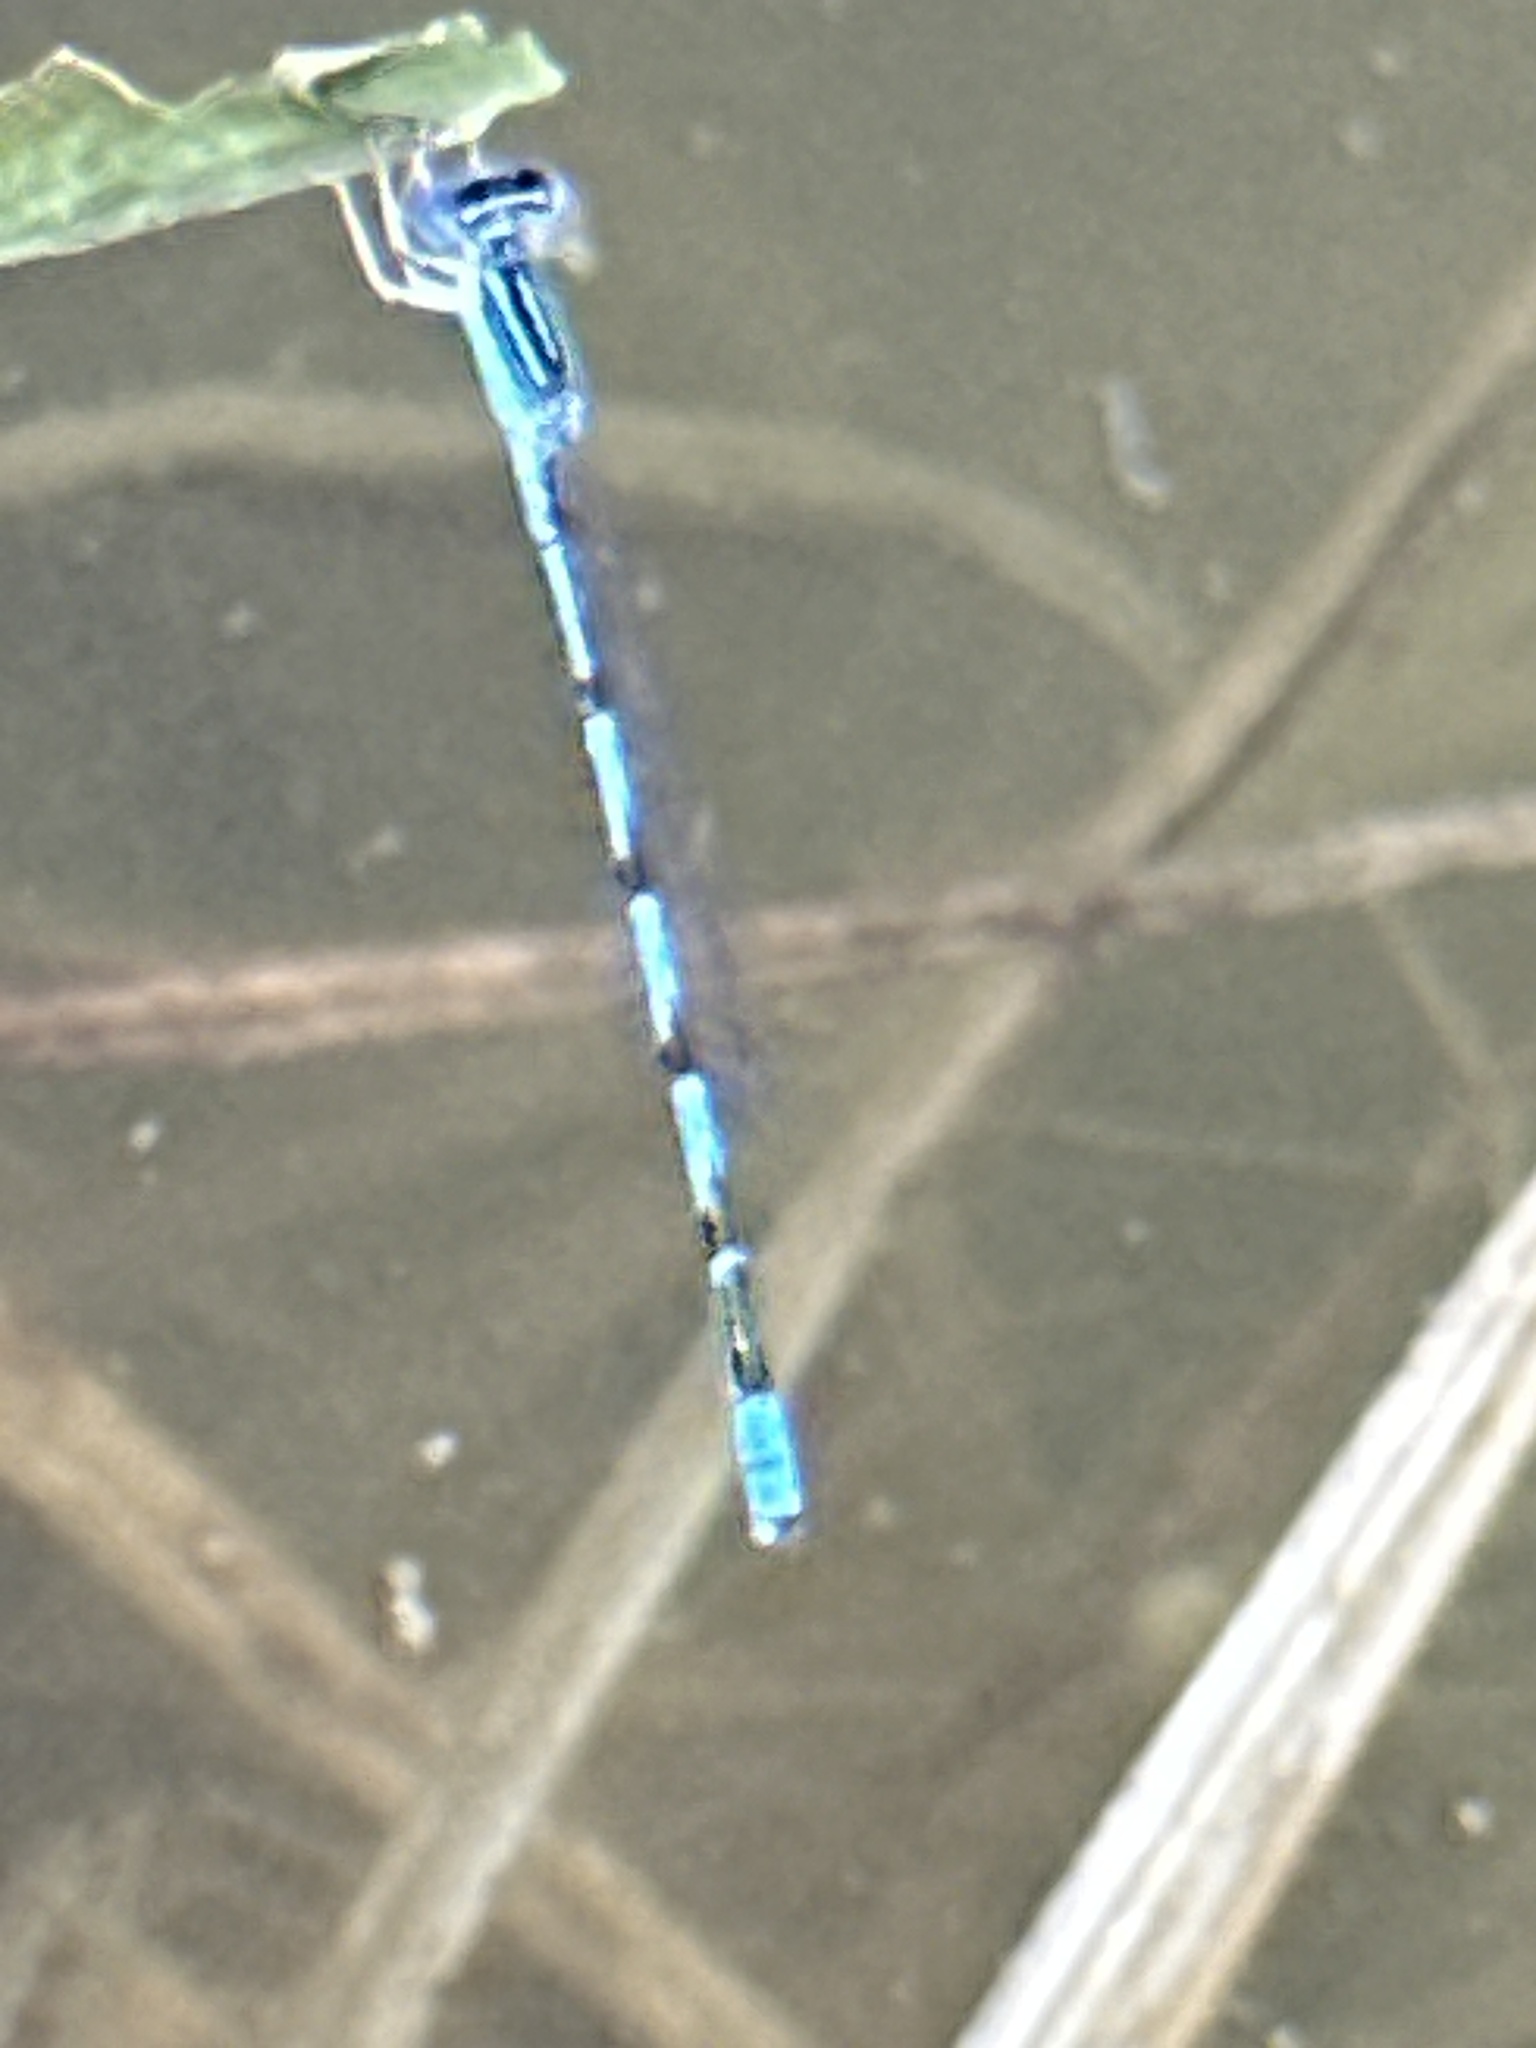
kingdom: Animalia
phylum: Arthropoda
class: Insecta
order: Odonata
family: Coenagrionidae
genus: Enallagma
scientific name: Enallagma basidens
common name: Double-striped bluet
